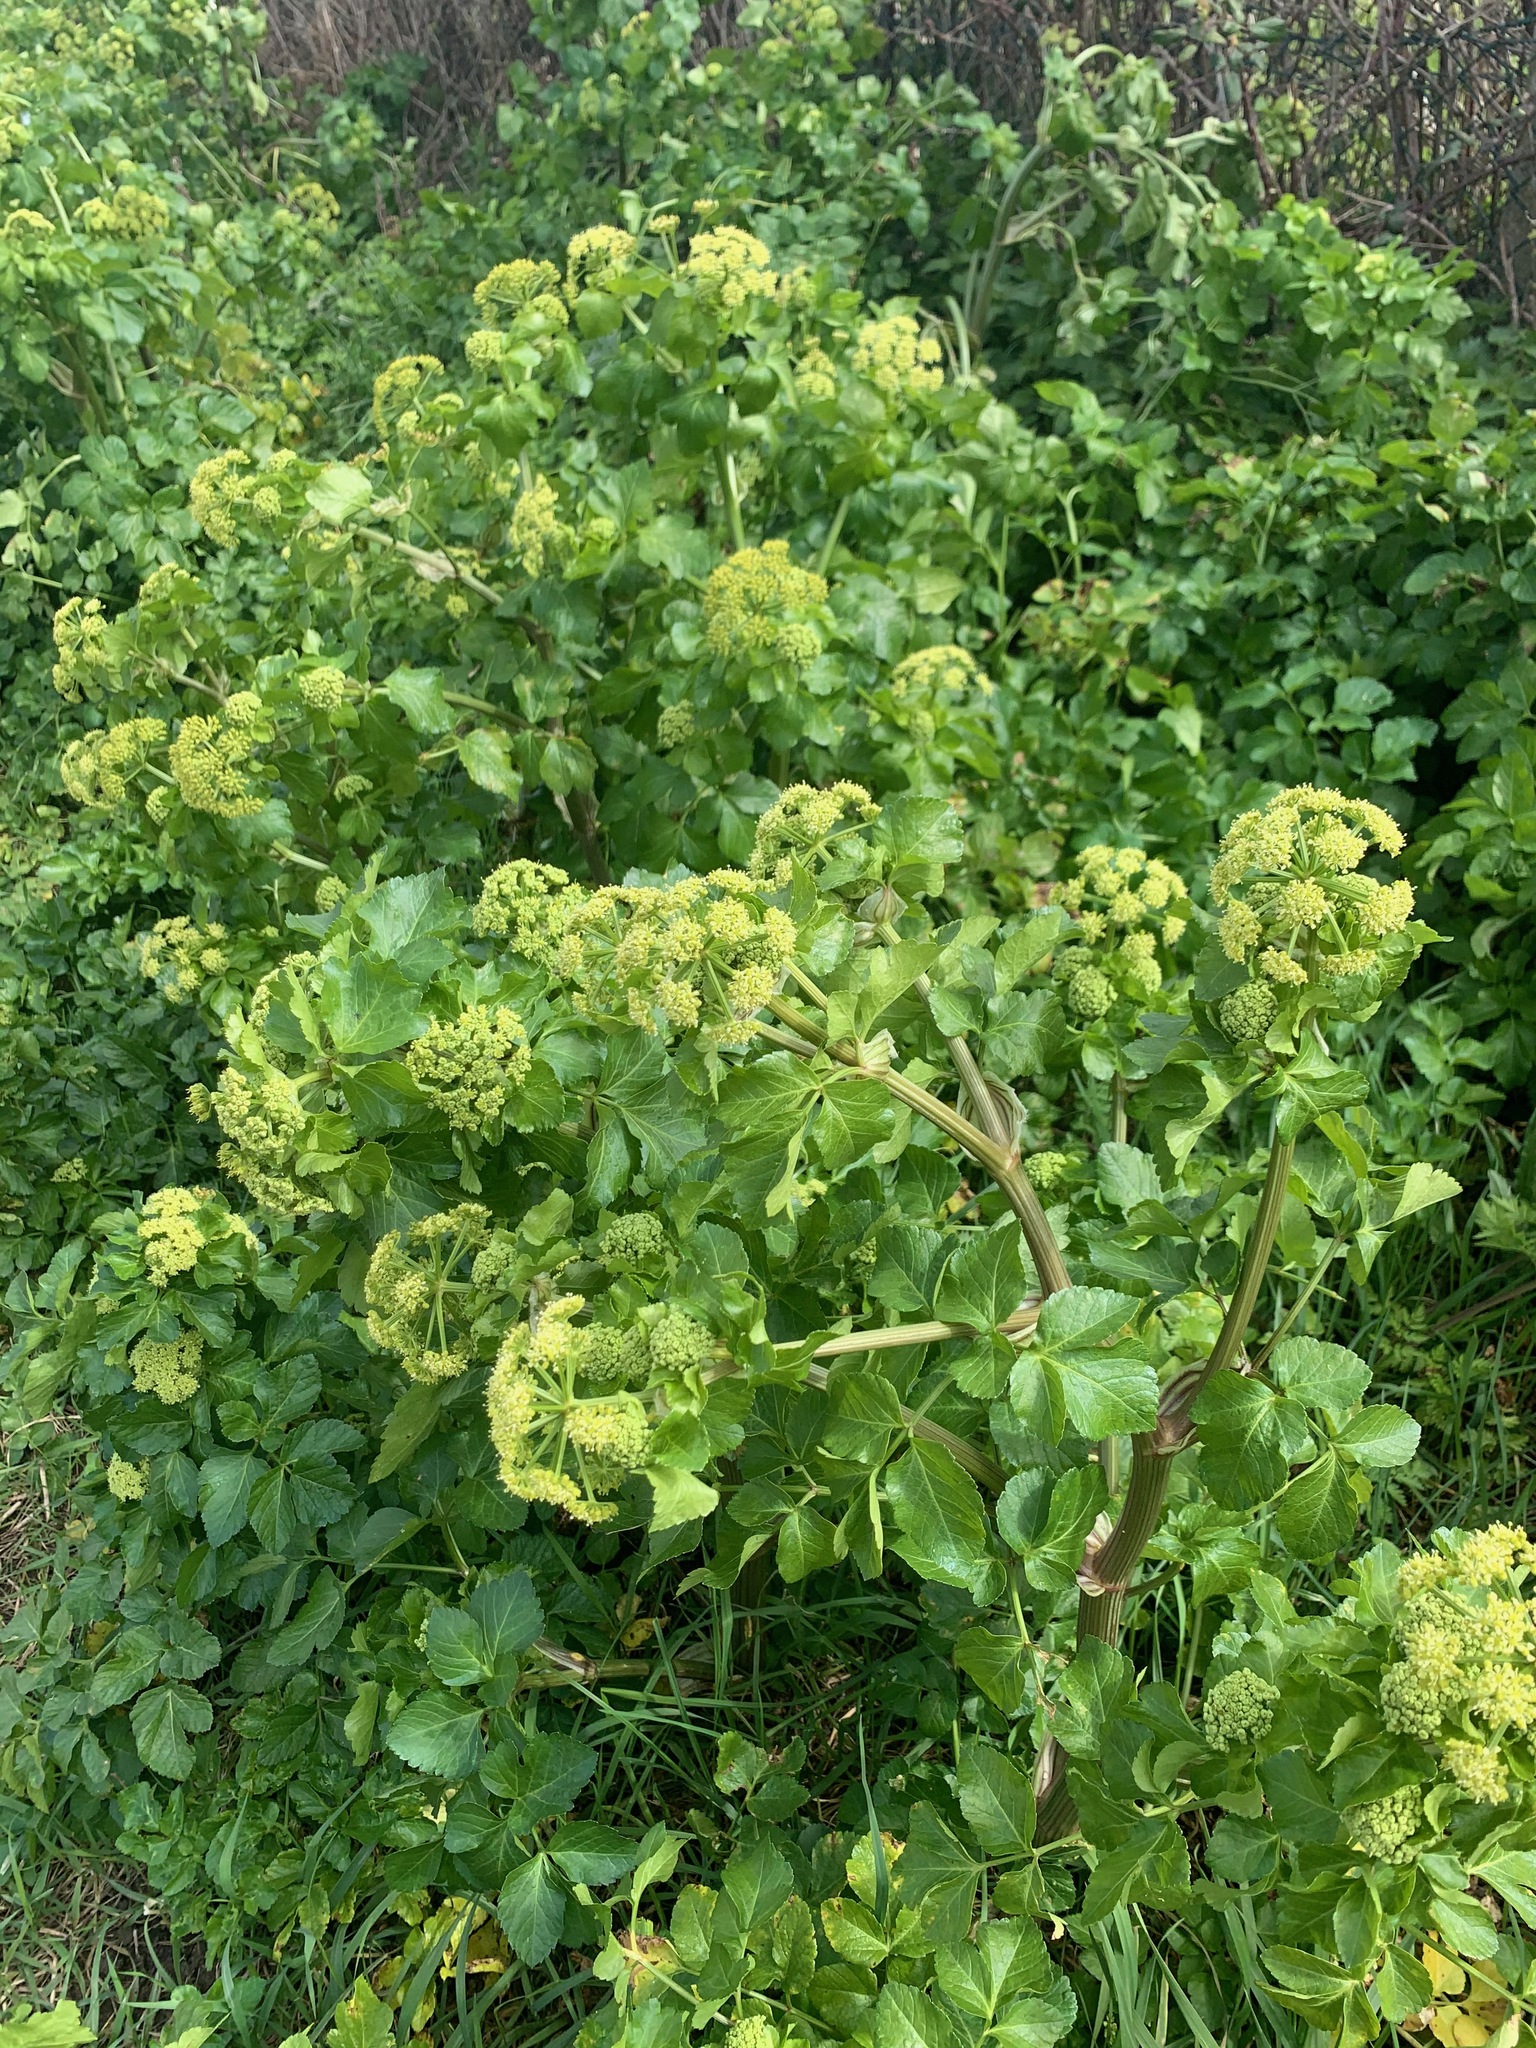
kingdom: Plantae
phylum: Tracheophyta
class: Magnoliopsida
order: Apiales
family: Apiaceae
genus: Smyrnium
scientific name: Smyrnium olusatrum
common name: Alexanders
